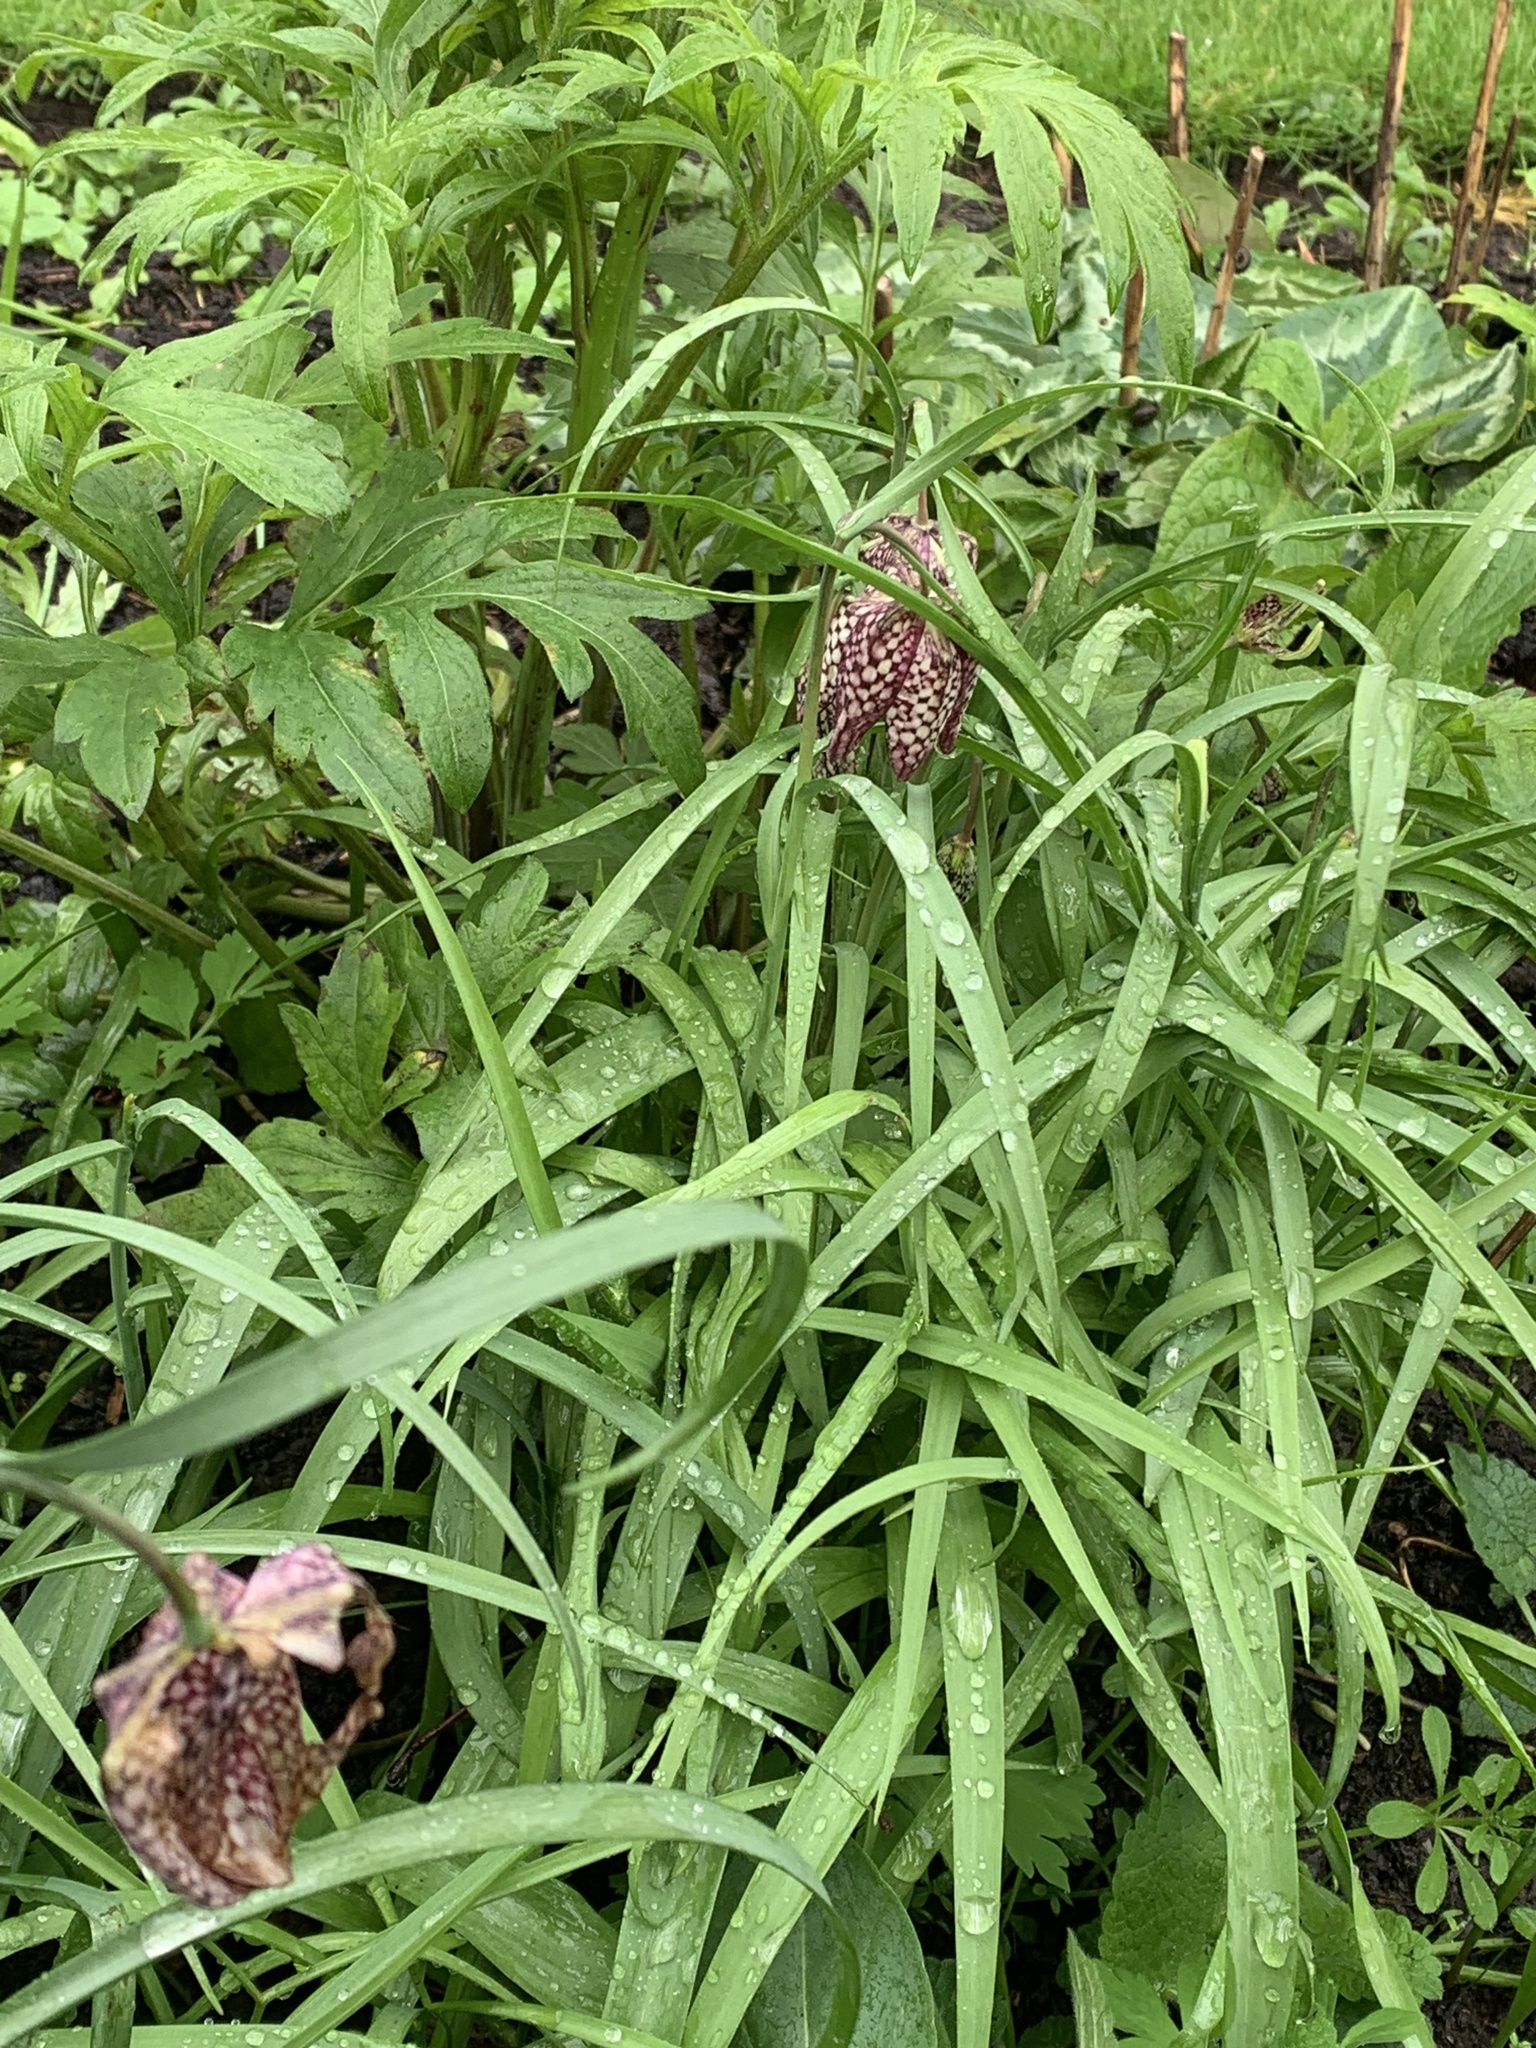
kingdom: Plantae
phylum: Tracheophyta
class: Liliopsida
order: Liliales
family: Liliaceae
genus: Fritillaria
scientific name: Fritillaria meleagris
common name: Fritillary
